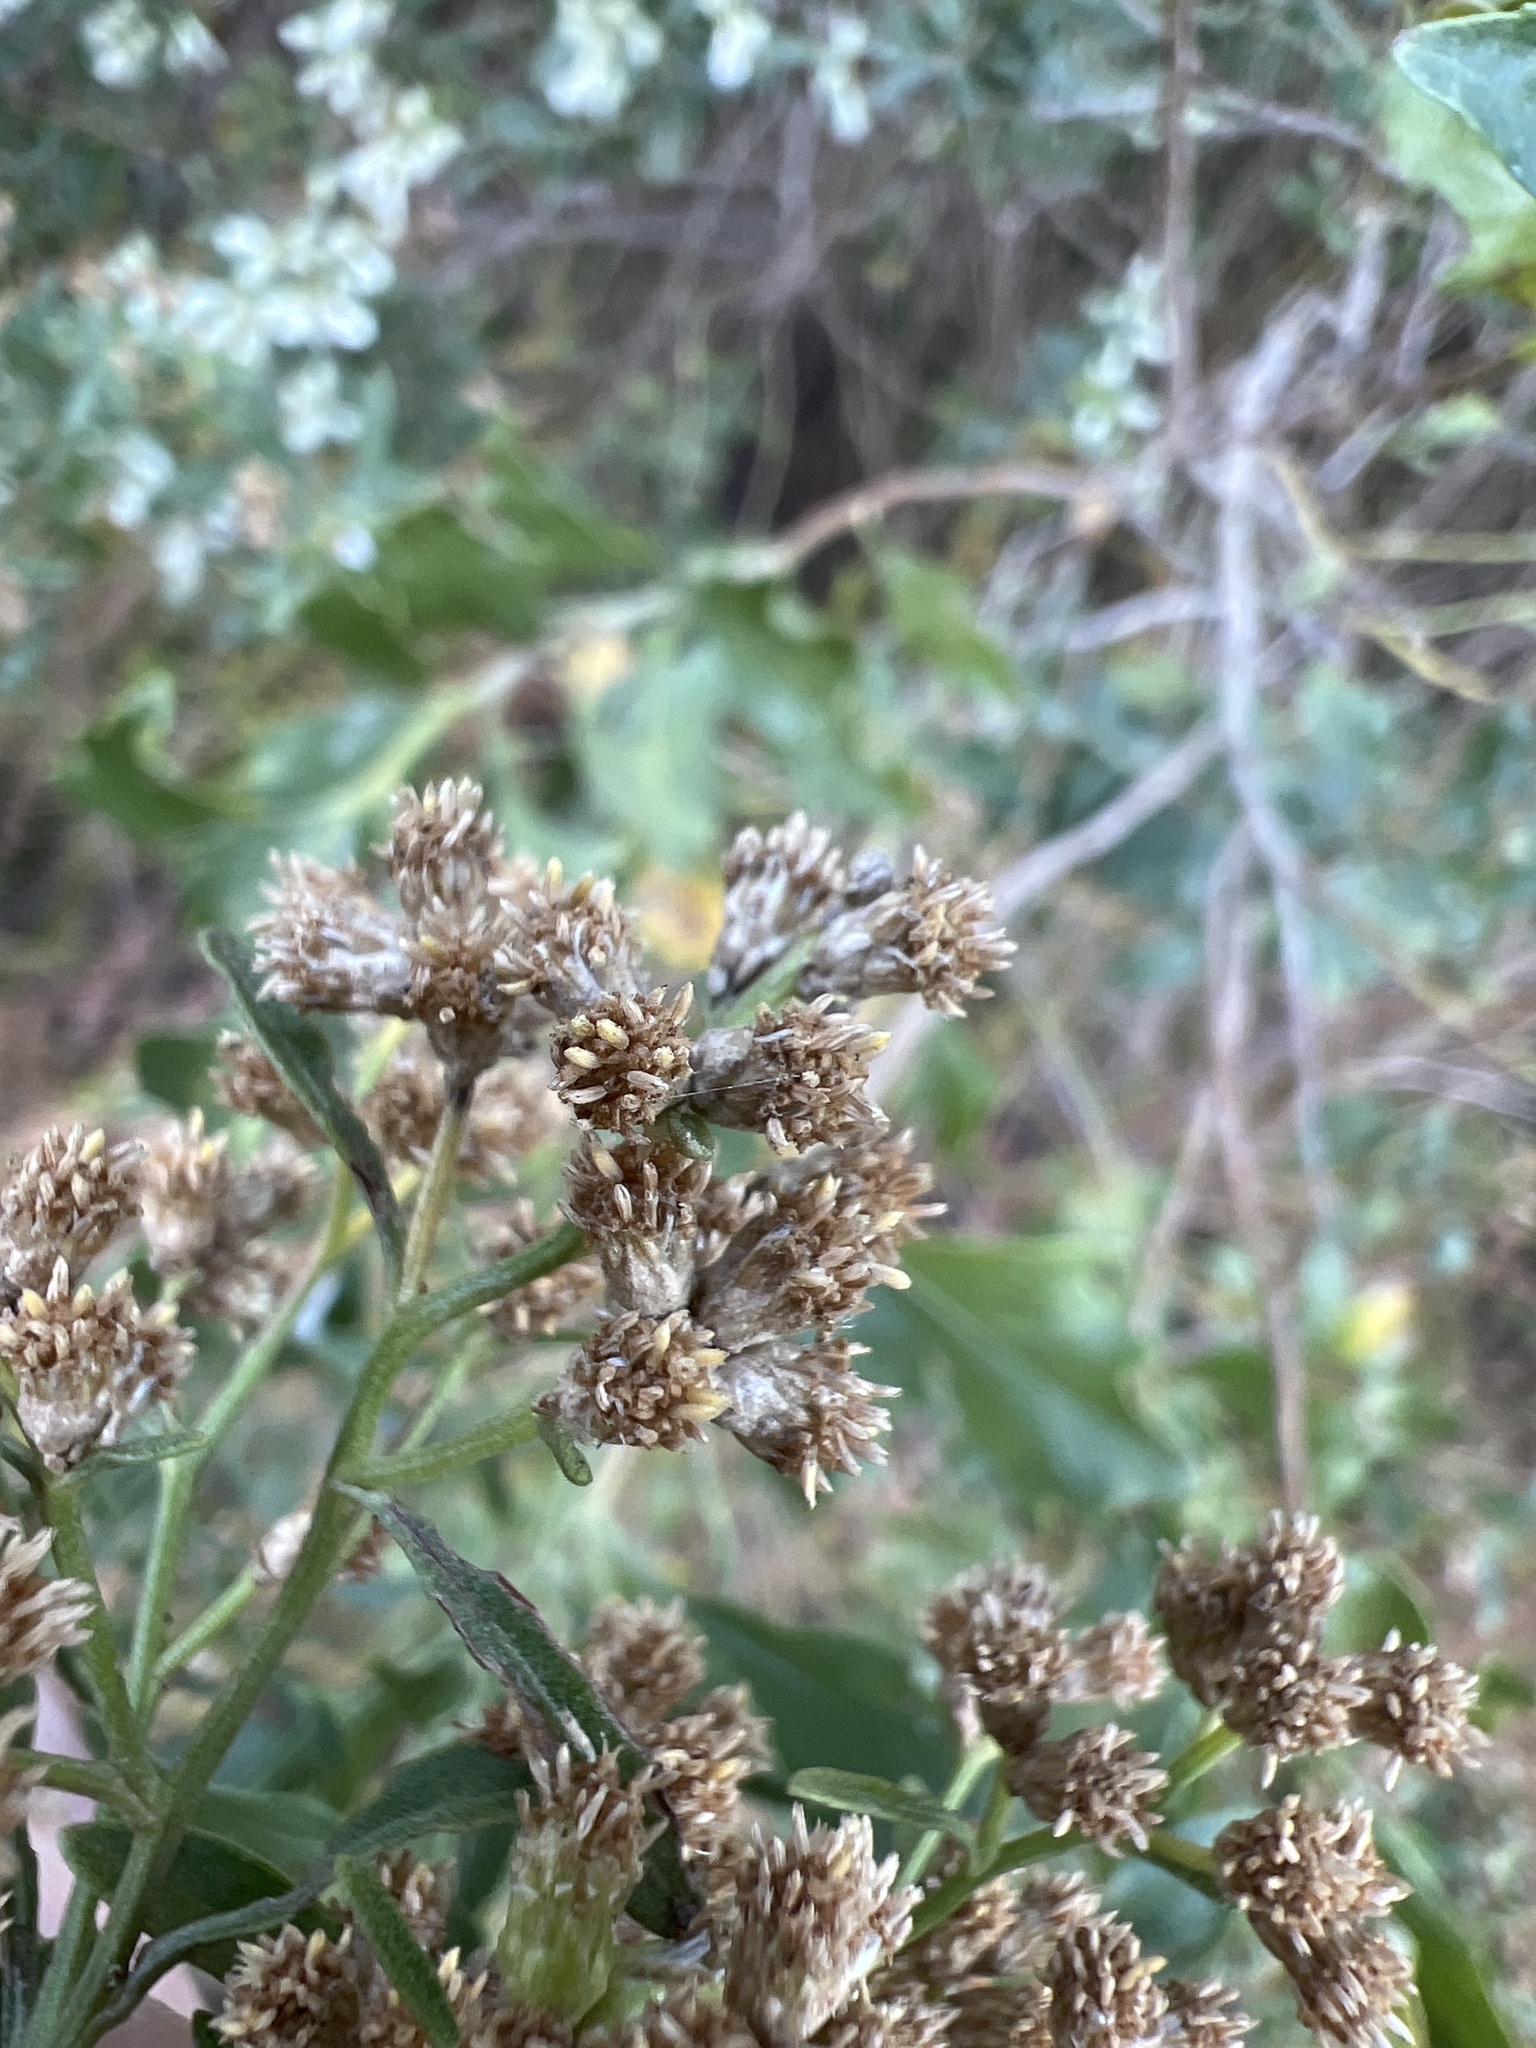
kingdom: Plantae
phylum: Tracheophyta
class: Magnoliopsida
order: Asterales
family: Asteraceae
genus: Baccharis
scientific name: Baccharis halimifolia
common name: Eastern baccharis
